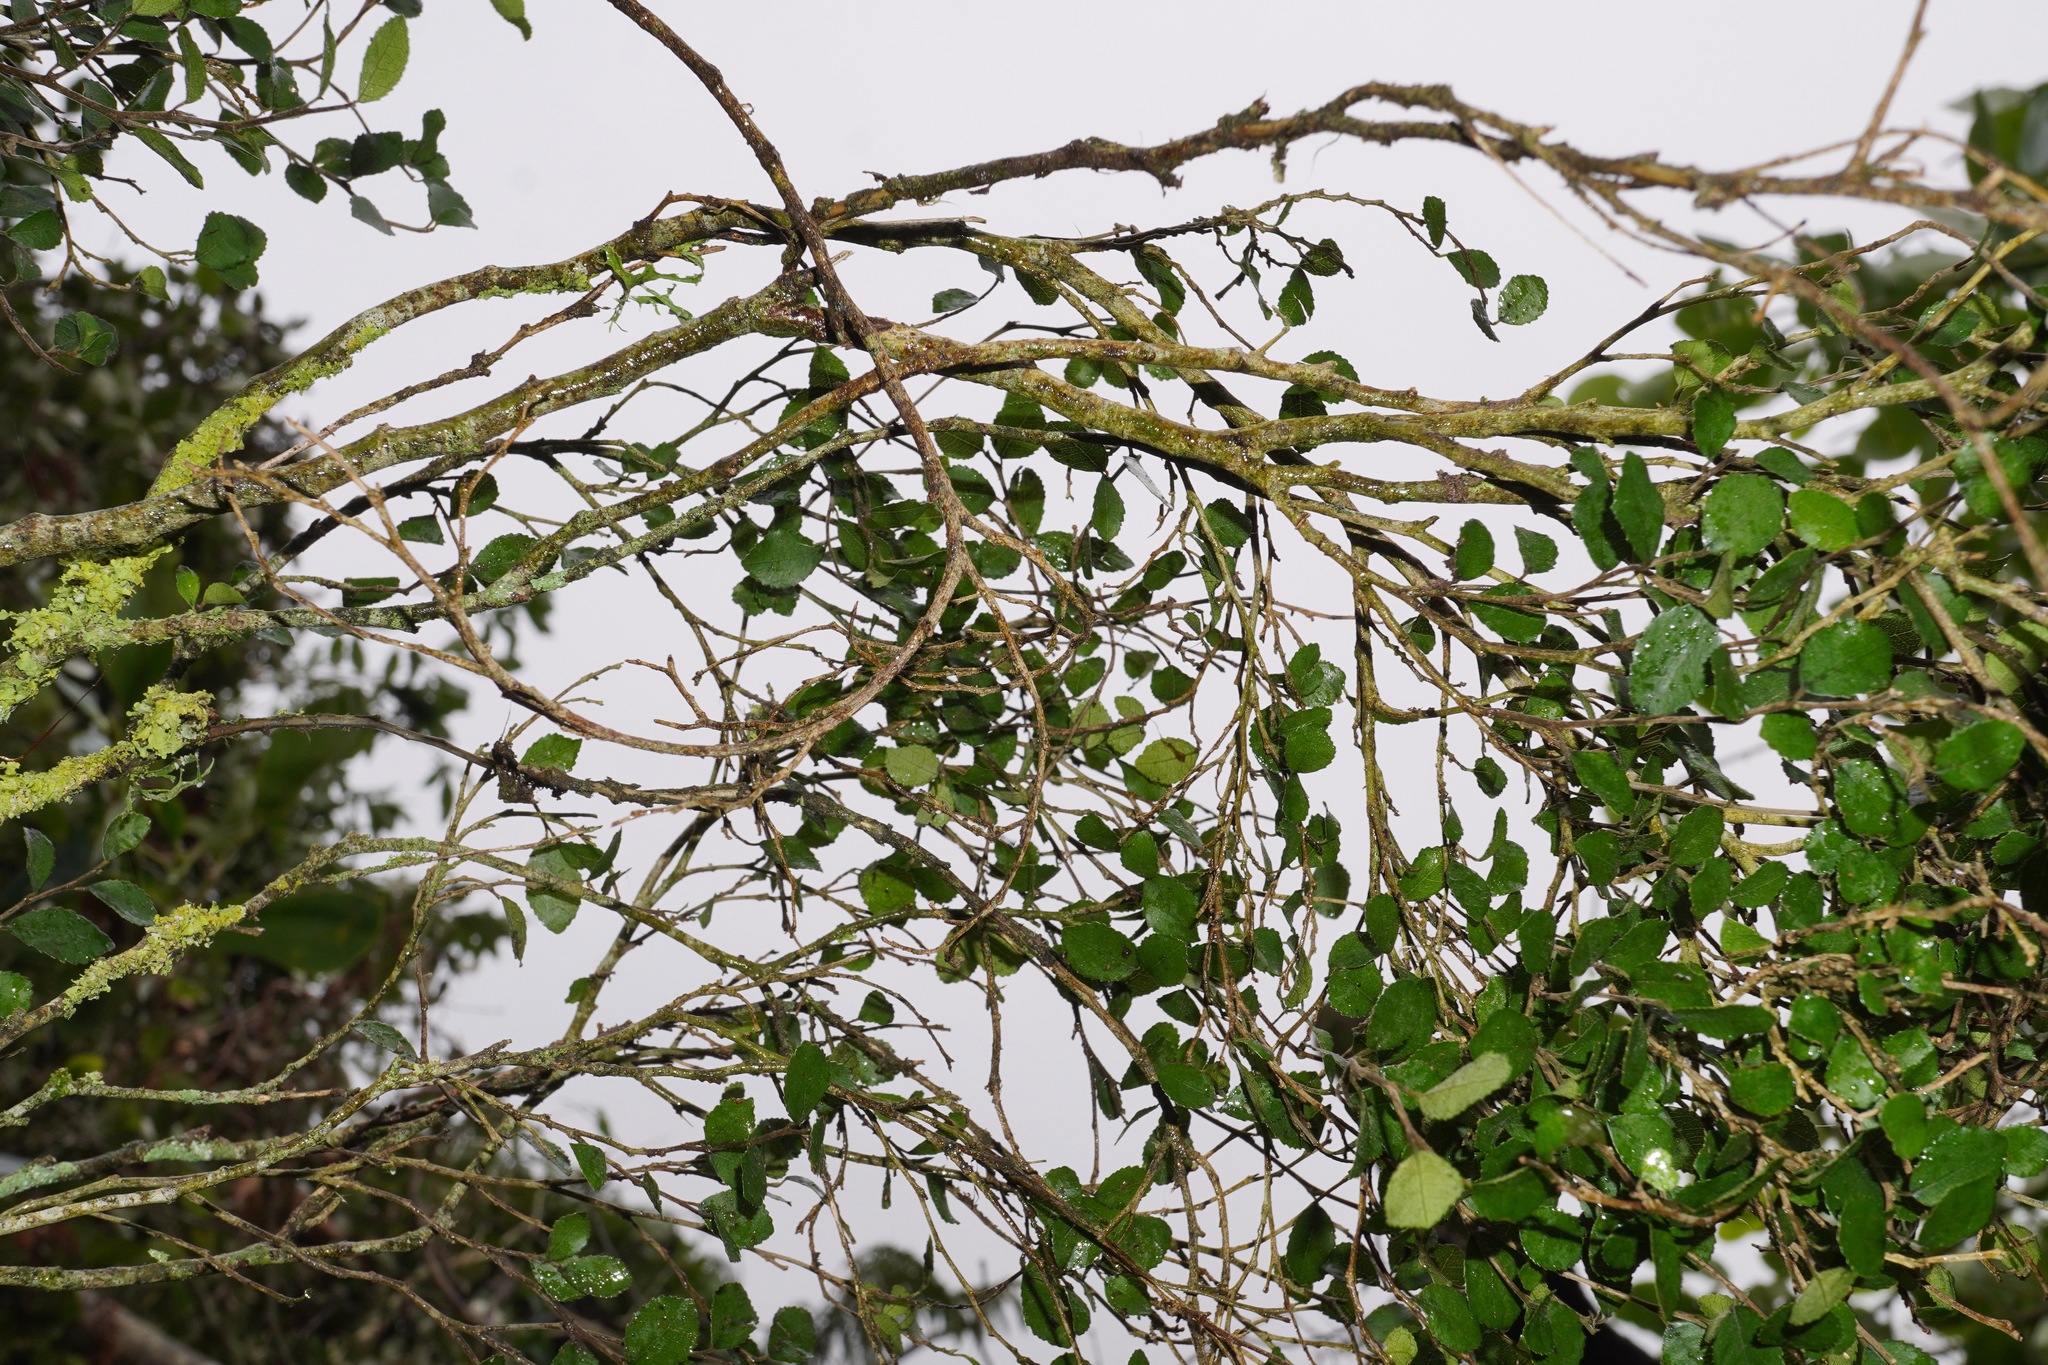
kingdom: Plantae
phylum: Tracheophyta
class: Magnoliopsida
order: Rosales
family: Moraceae
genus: Paratrophis
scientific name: Paratrophis microphylla
